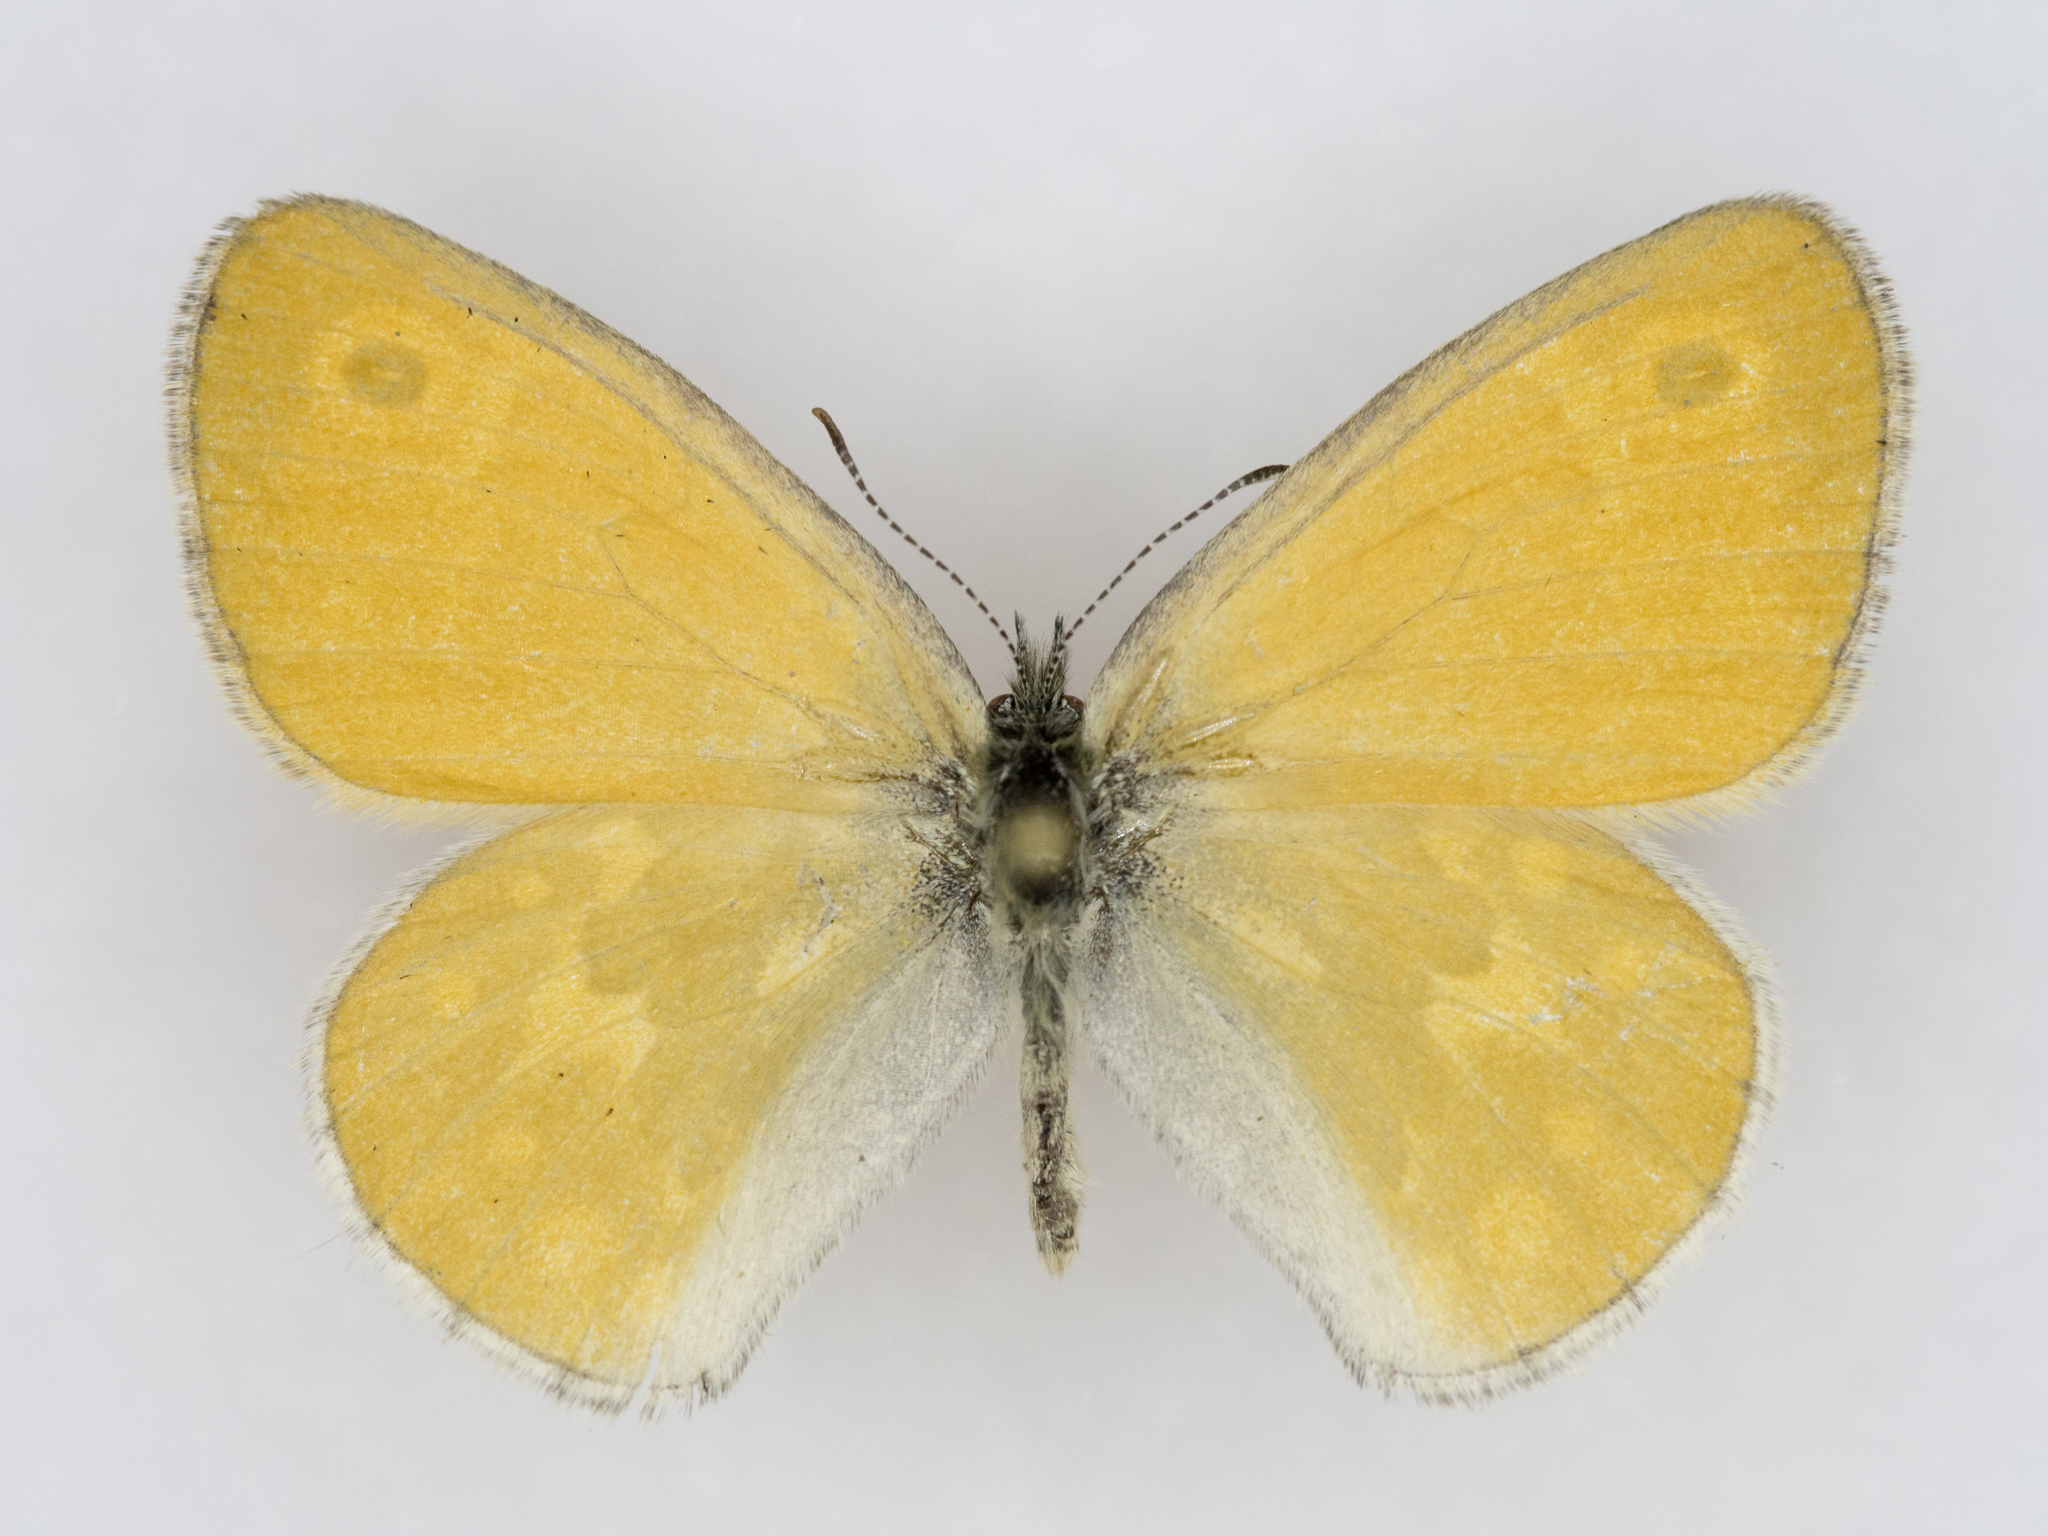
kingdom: Animalia
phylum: Arthropoda
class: Insecta
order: Lepidoptera
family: Nymphalidae
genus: Coenonympha
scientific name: Coenonympha california
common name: Common ringlet
